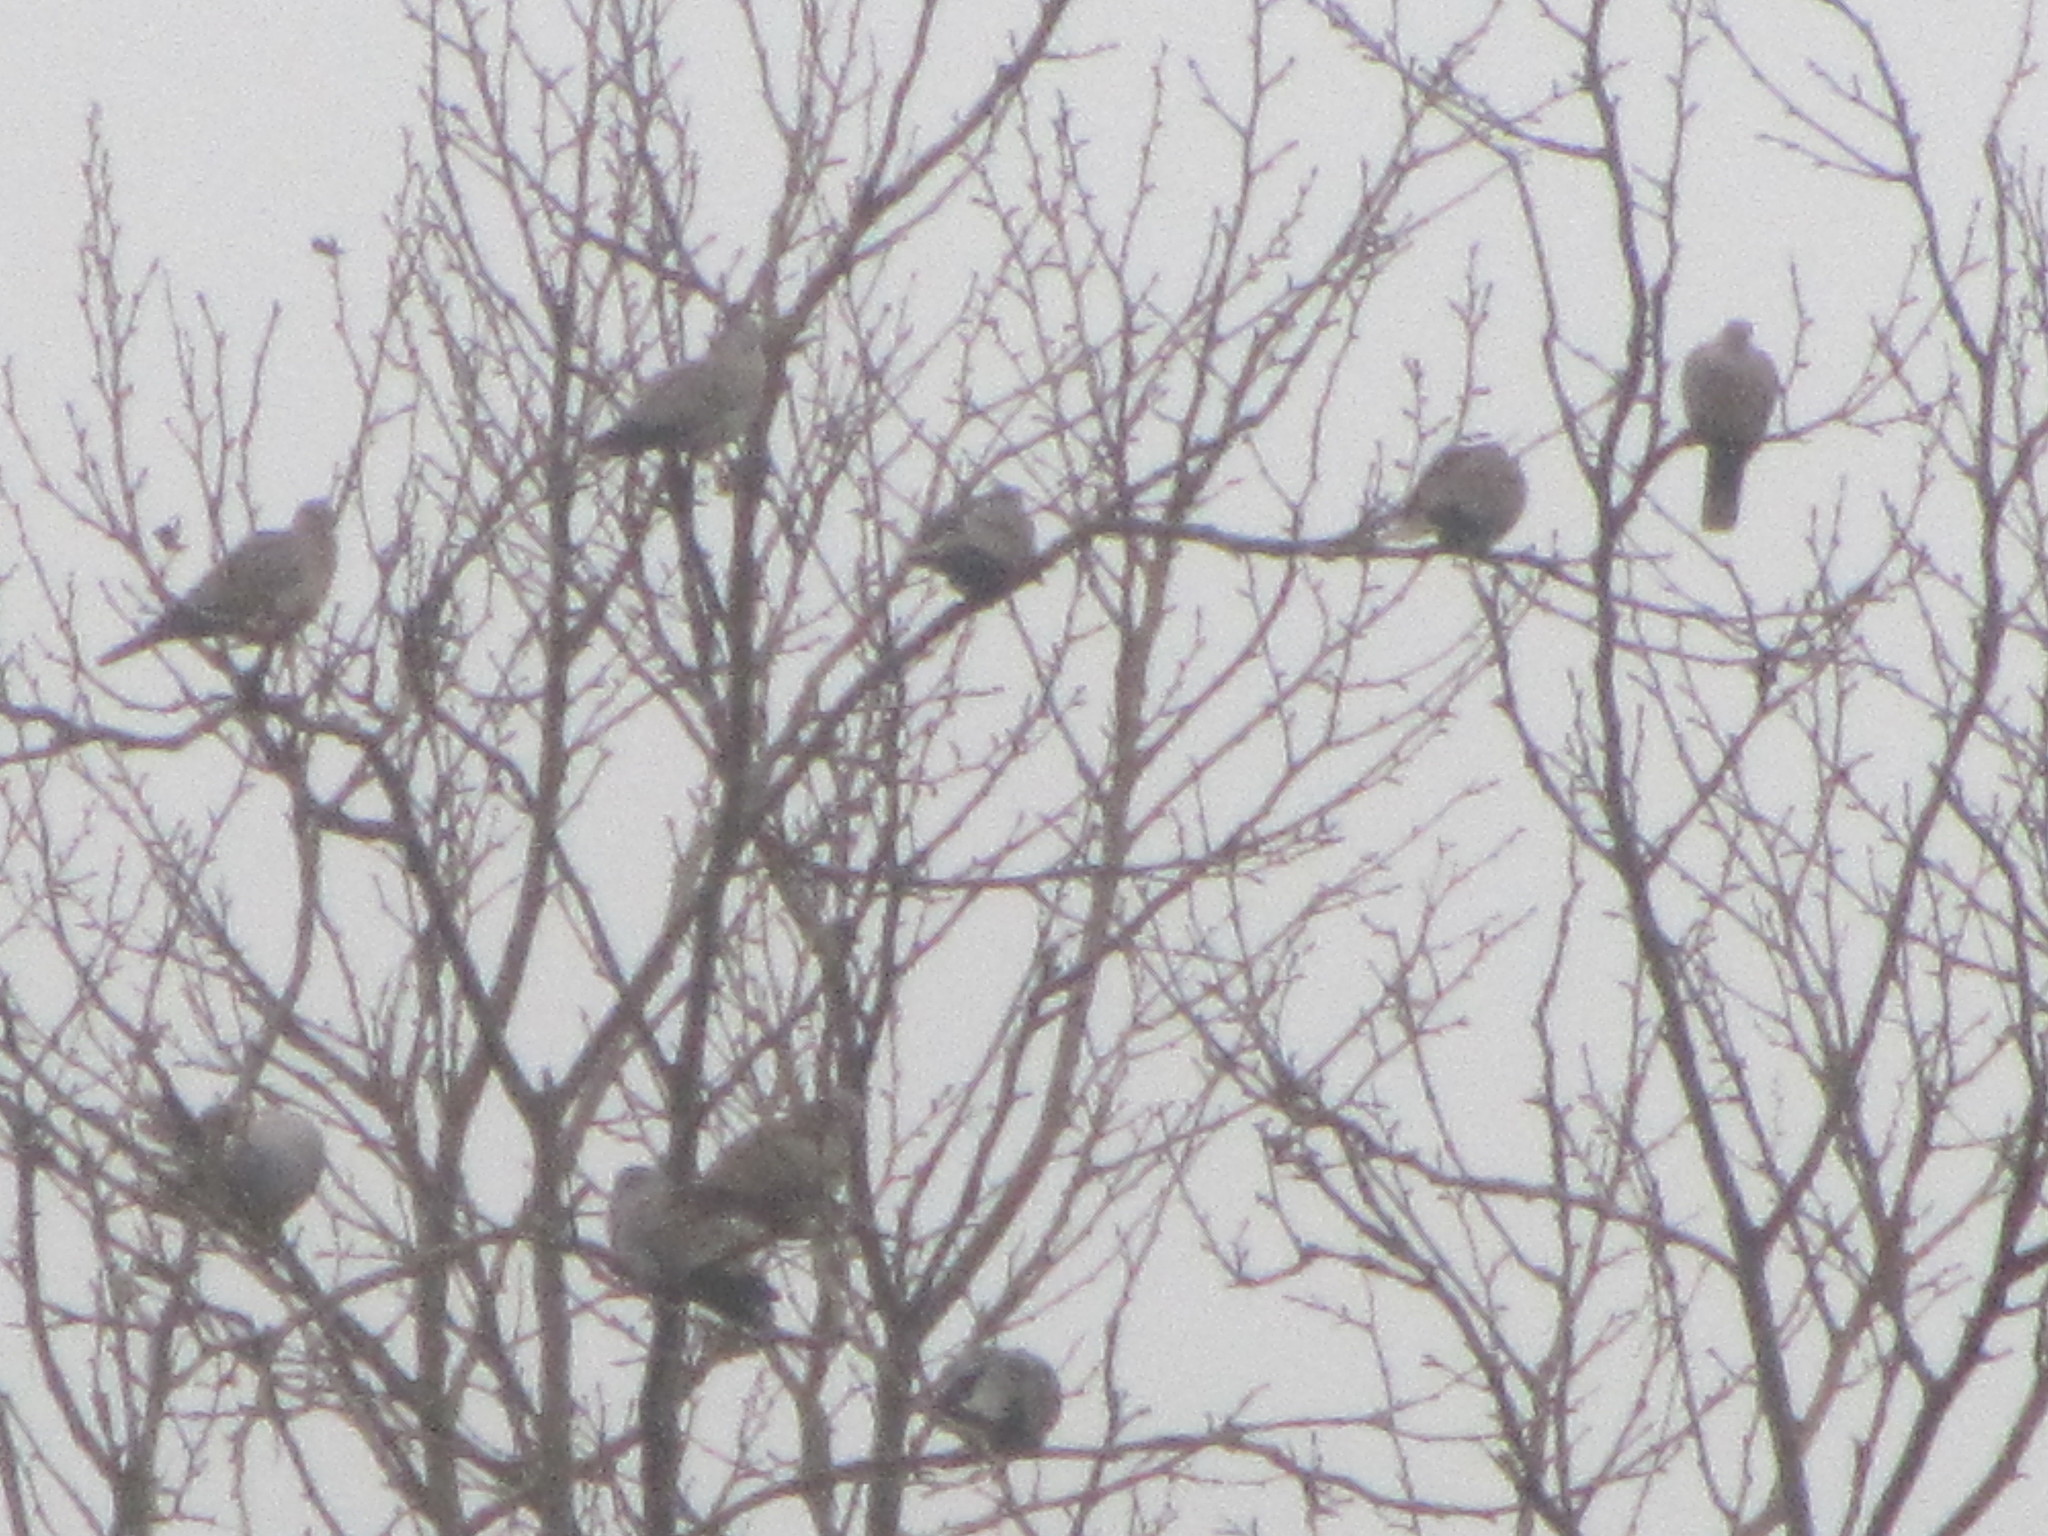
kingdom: Animalia
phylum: Chordata
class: Aves
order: Columbiformes
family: Columbidae
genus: Streptopelia
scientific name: Streptopelia decaocto
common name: Eurasian collared dove
